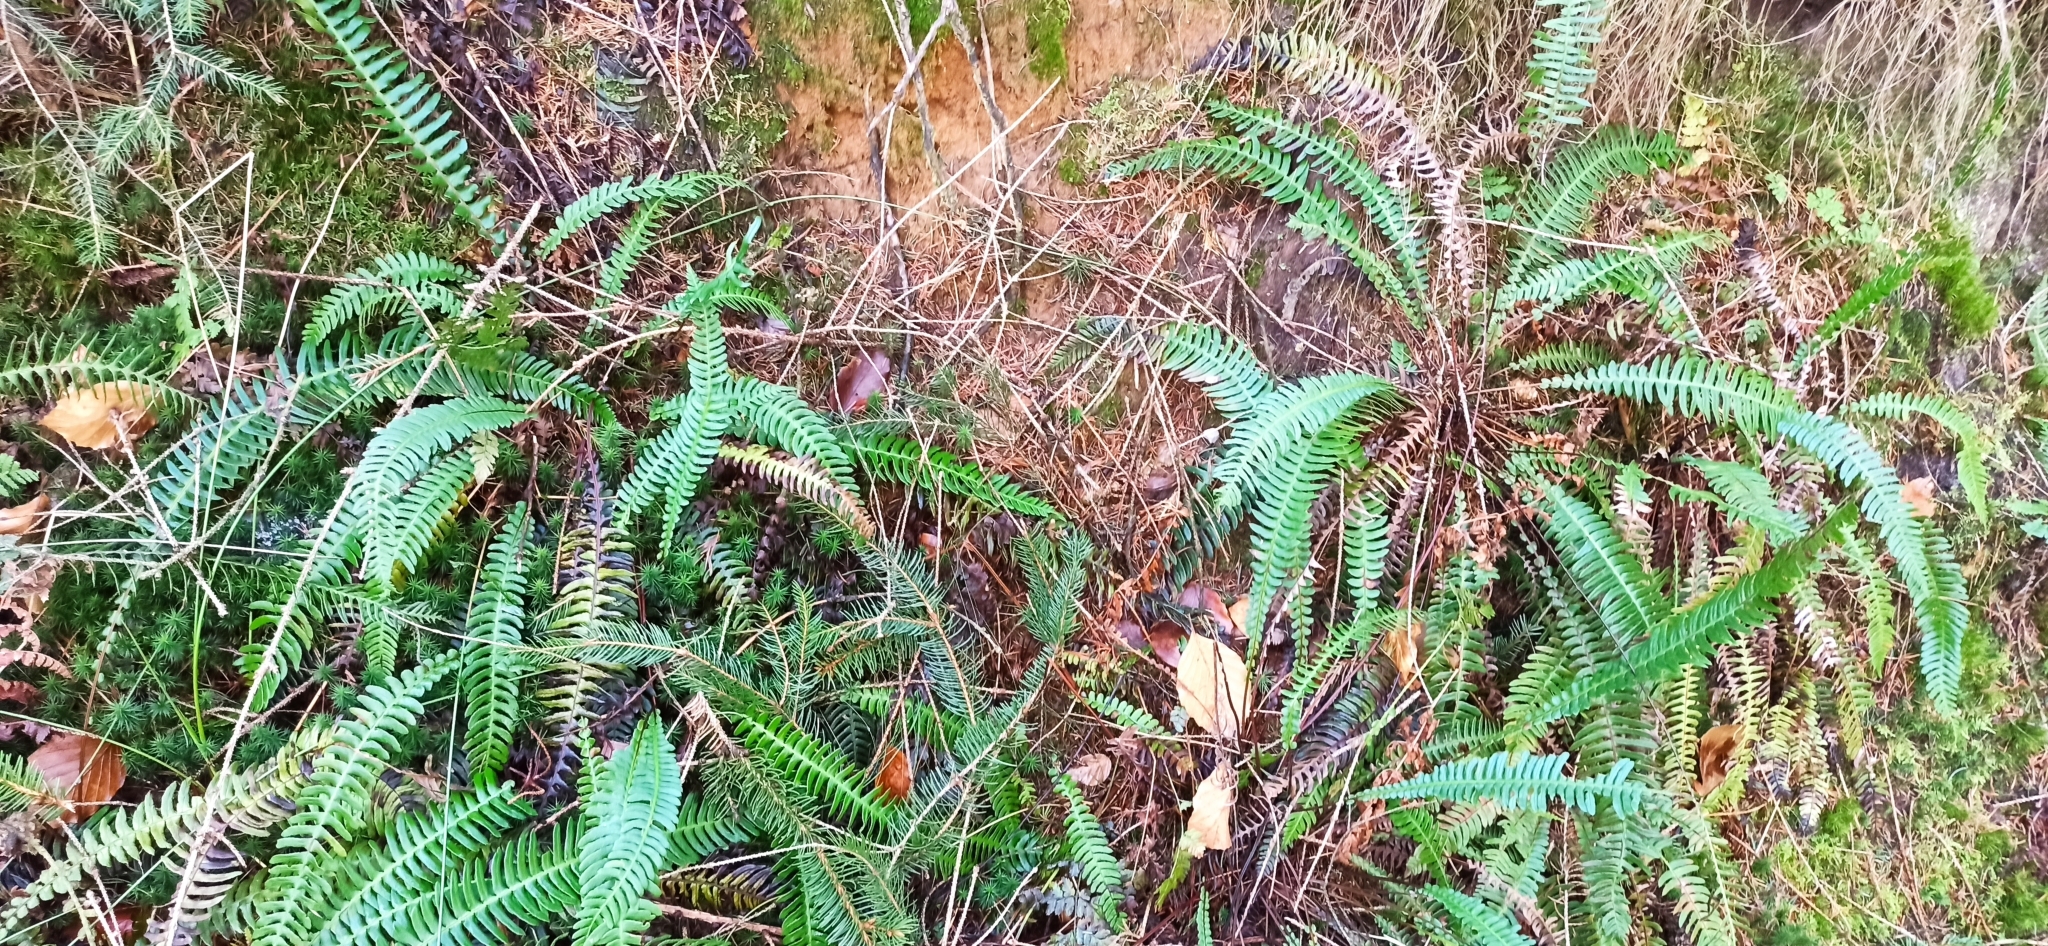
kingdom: Plantae
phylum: Tracheophyta
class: Polypodiopsida
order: Polypodiales
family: Blechnaceae
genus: Struthiopteris
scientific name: Struthiopteris spicant
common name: Deer fern
